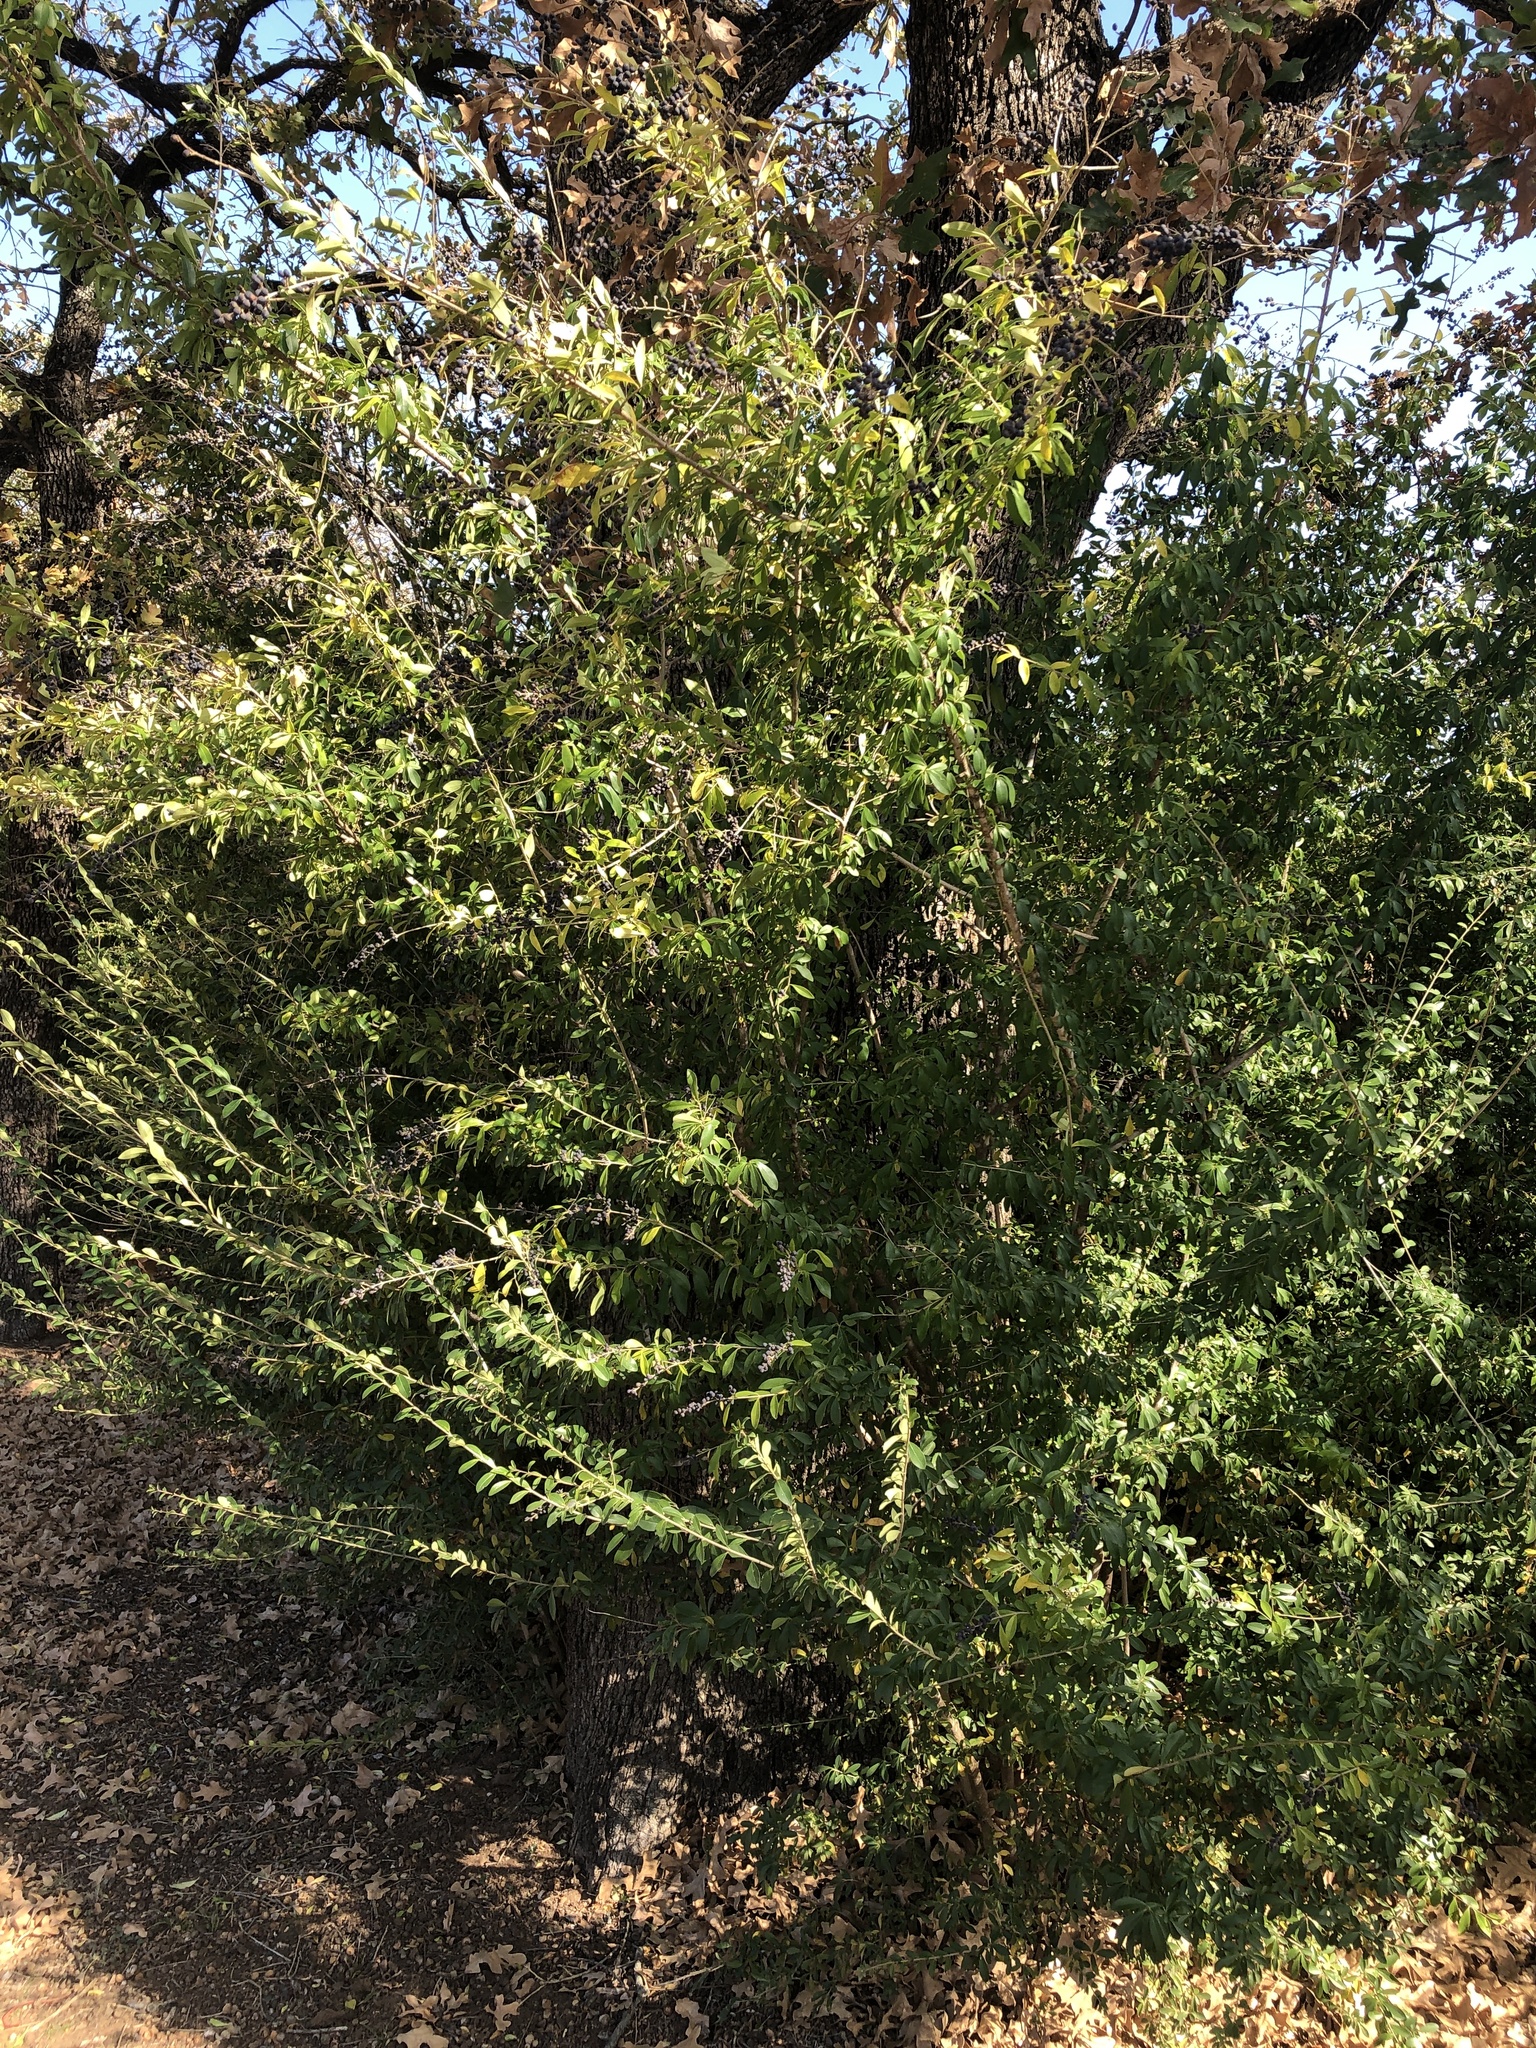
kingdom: Plantae
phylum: Tracheophyta
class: Magnoliopsida
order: Lamiales
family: Oleaceae
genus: Ligustrum
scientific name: Ligustrum quihoui
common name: Waxyleaf privet
